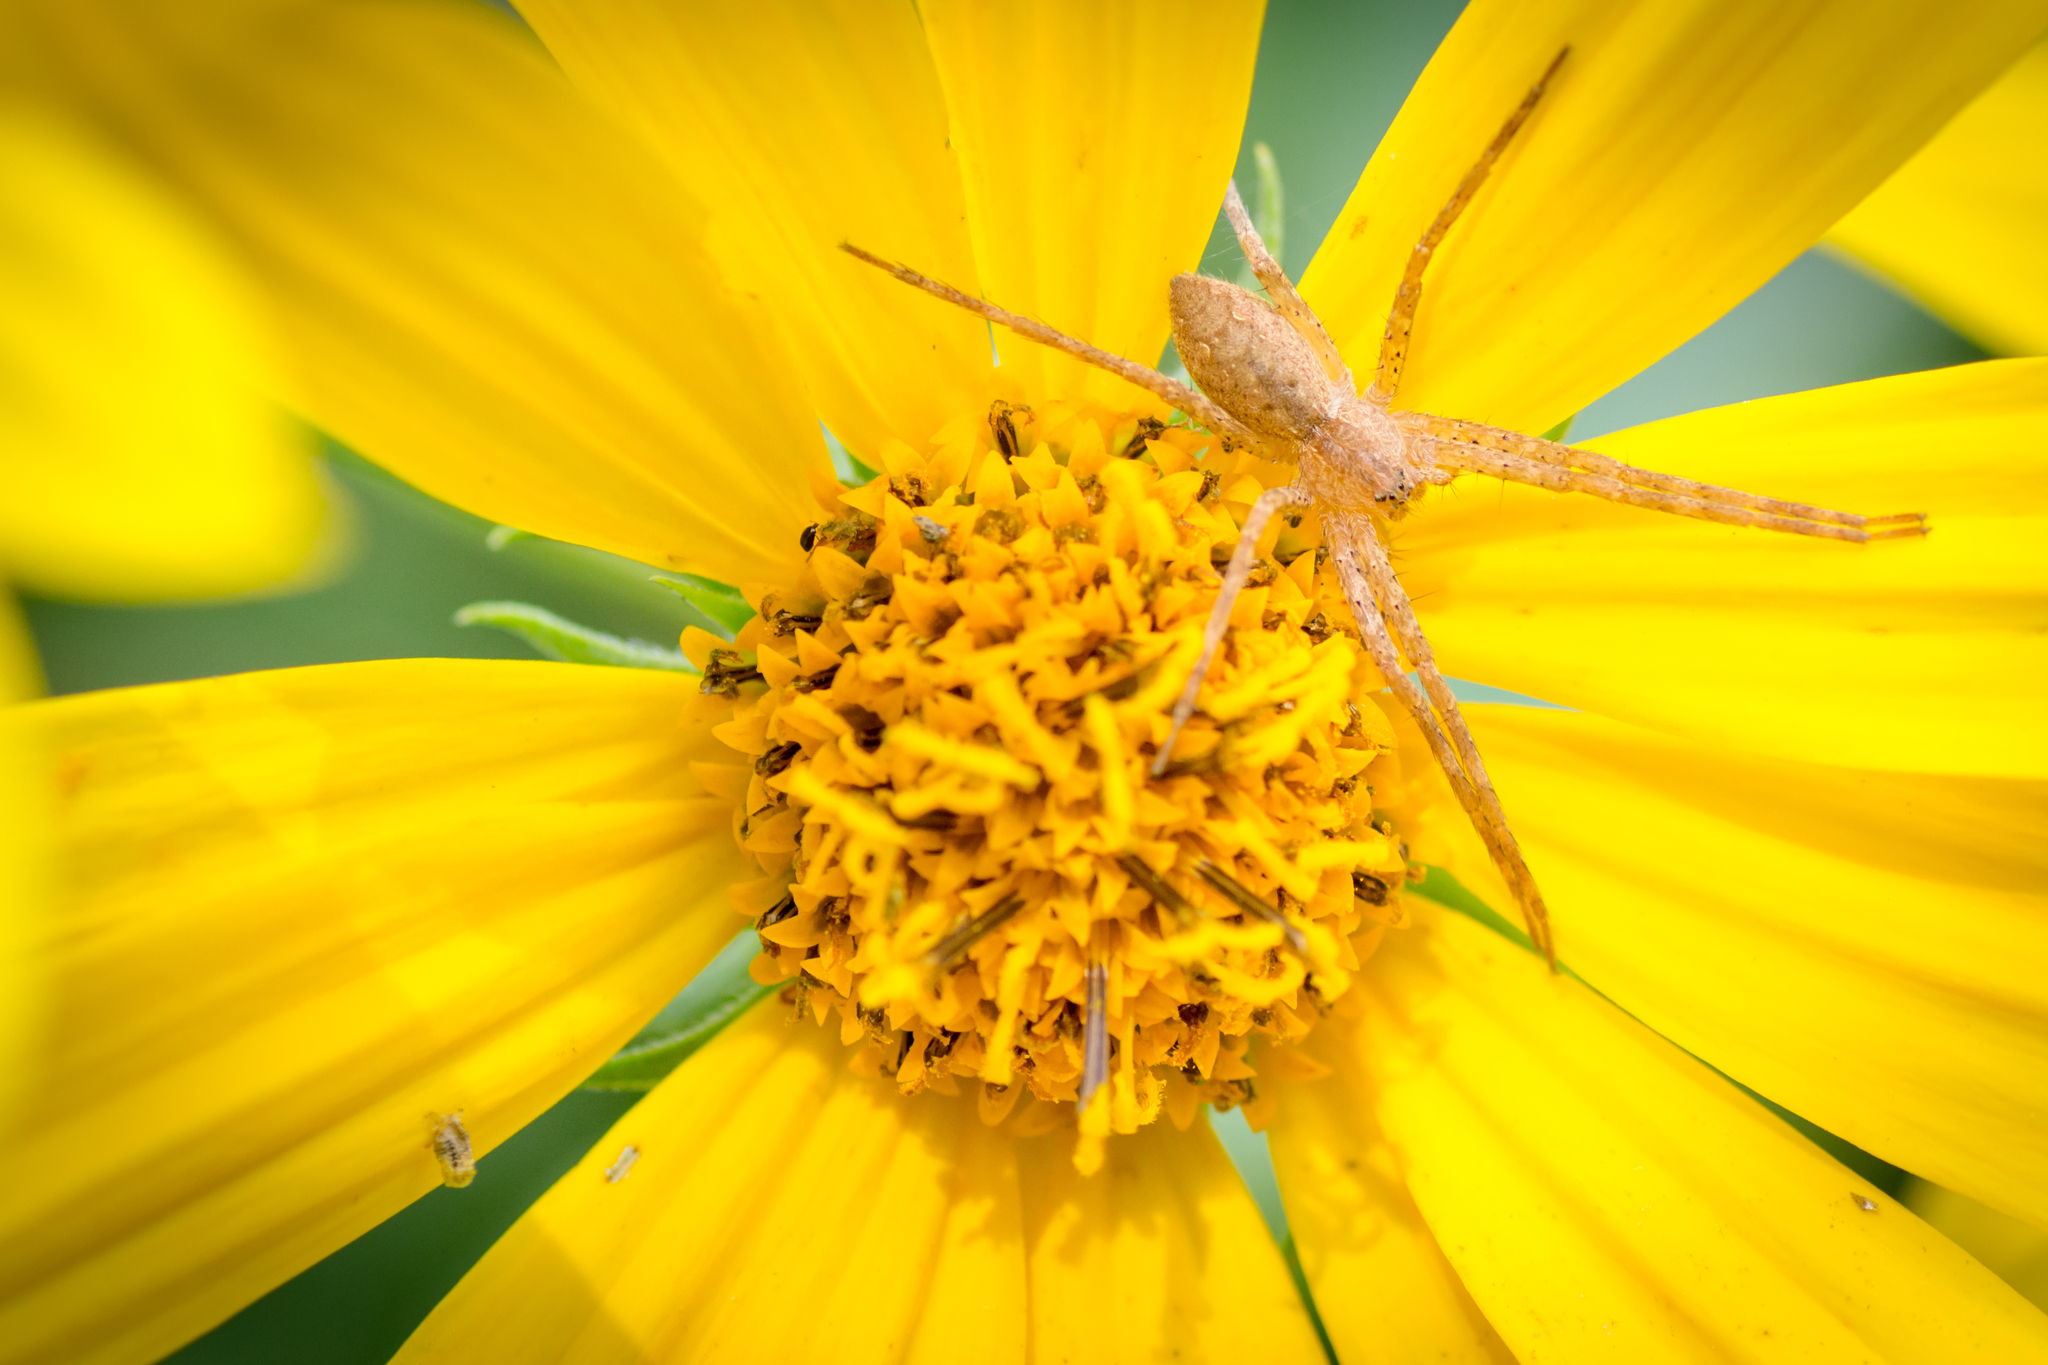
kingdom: Animalia
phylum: Arthropoda
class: Arachnida
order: Araneae
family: Pisauridae
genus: Pisaurina
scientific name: Pisaurina mira
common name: American nursery web spider
